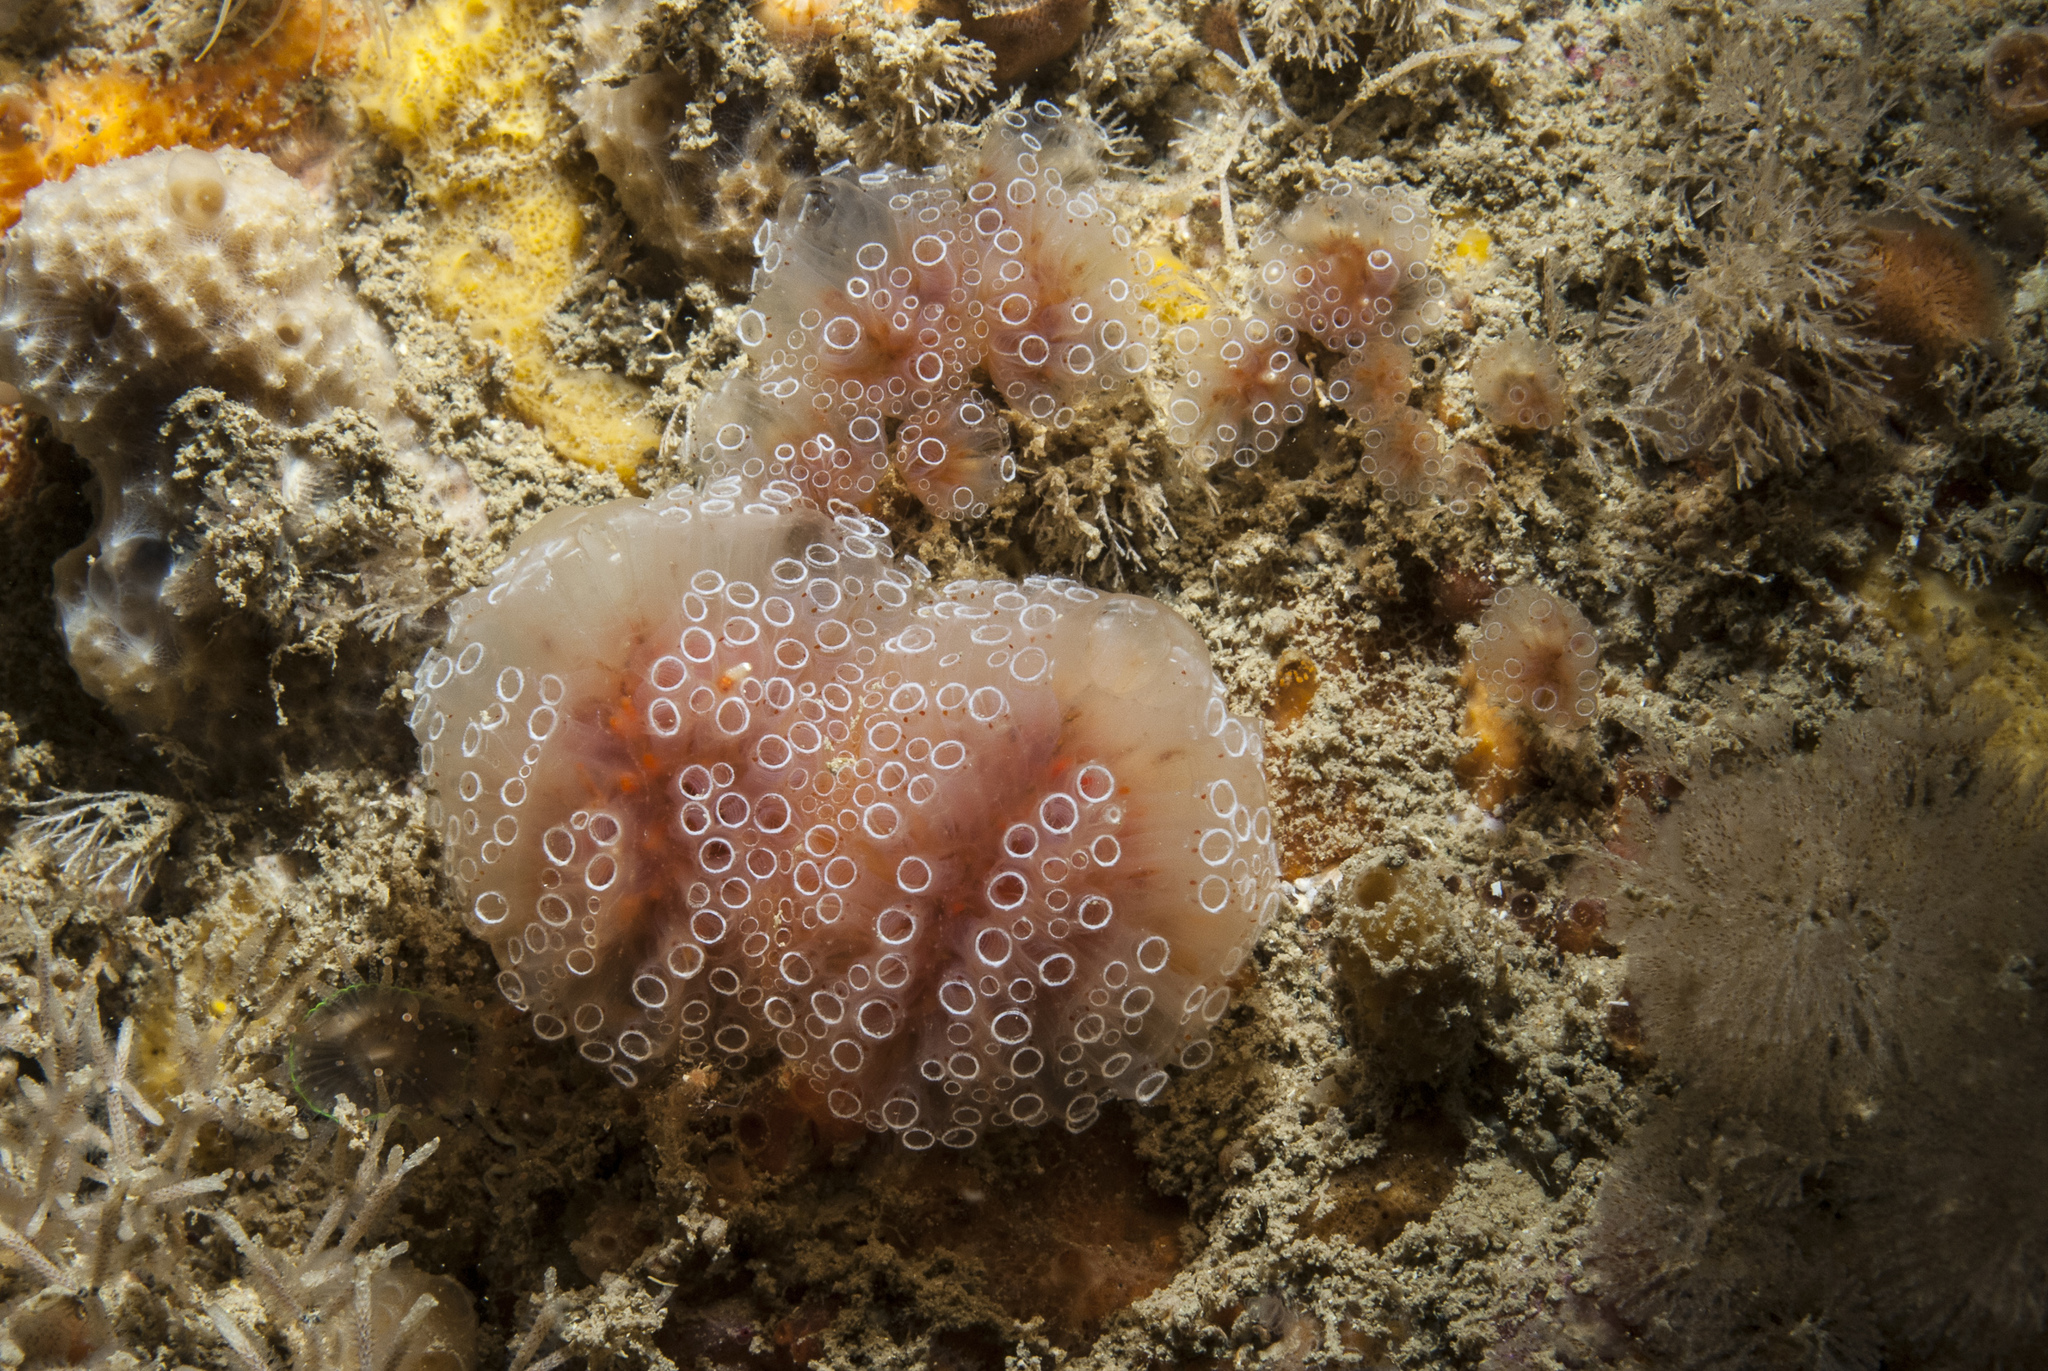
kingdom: Animalia
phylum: Chordata
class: Ascidiacea
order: Aplousobranchia
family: Polyclinidae
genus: Aplidium
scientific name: Aplidium ocellatum
